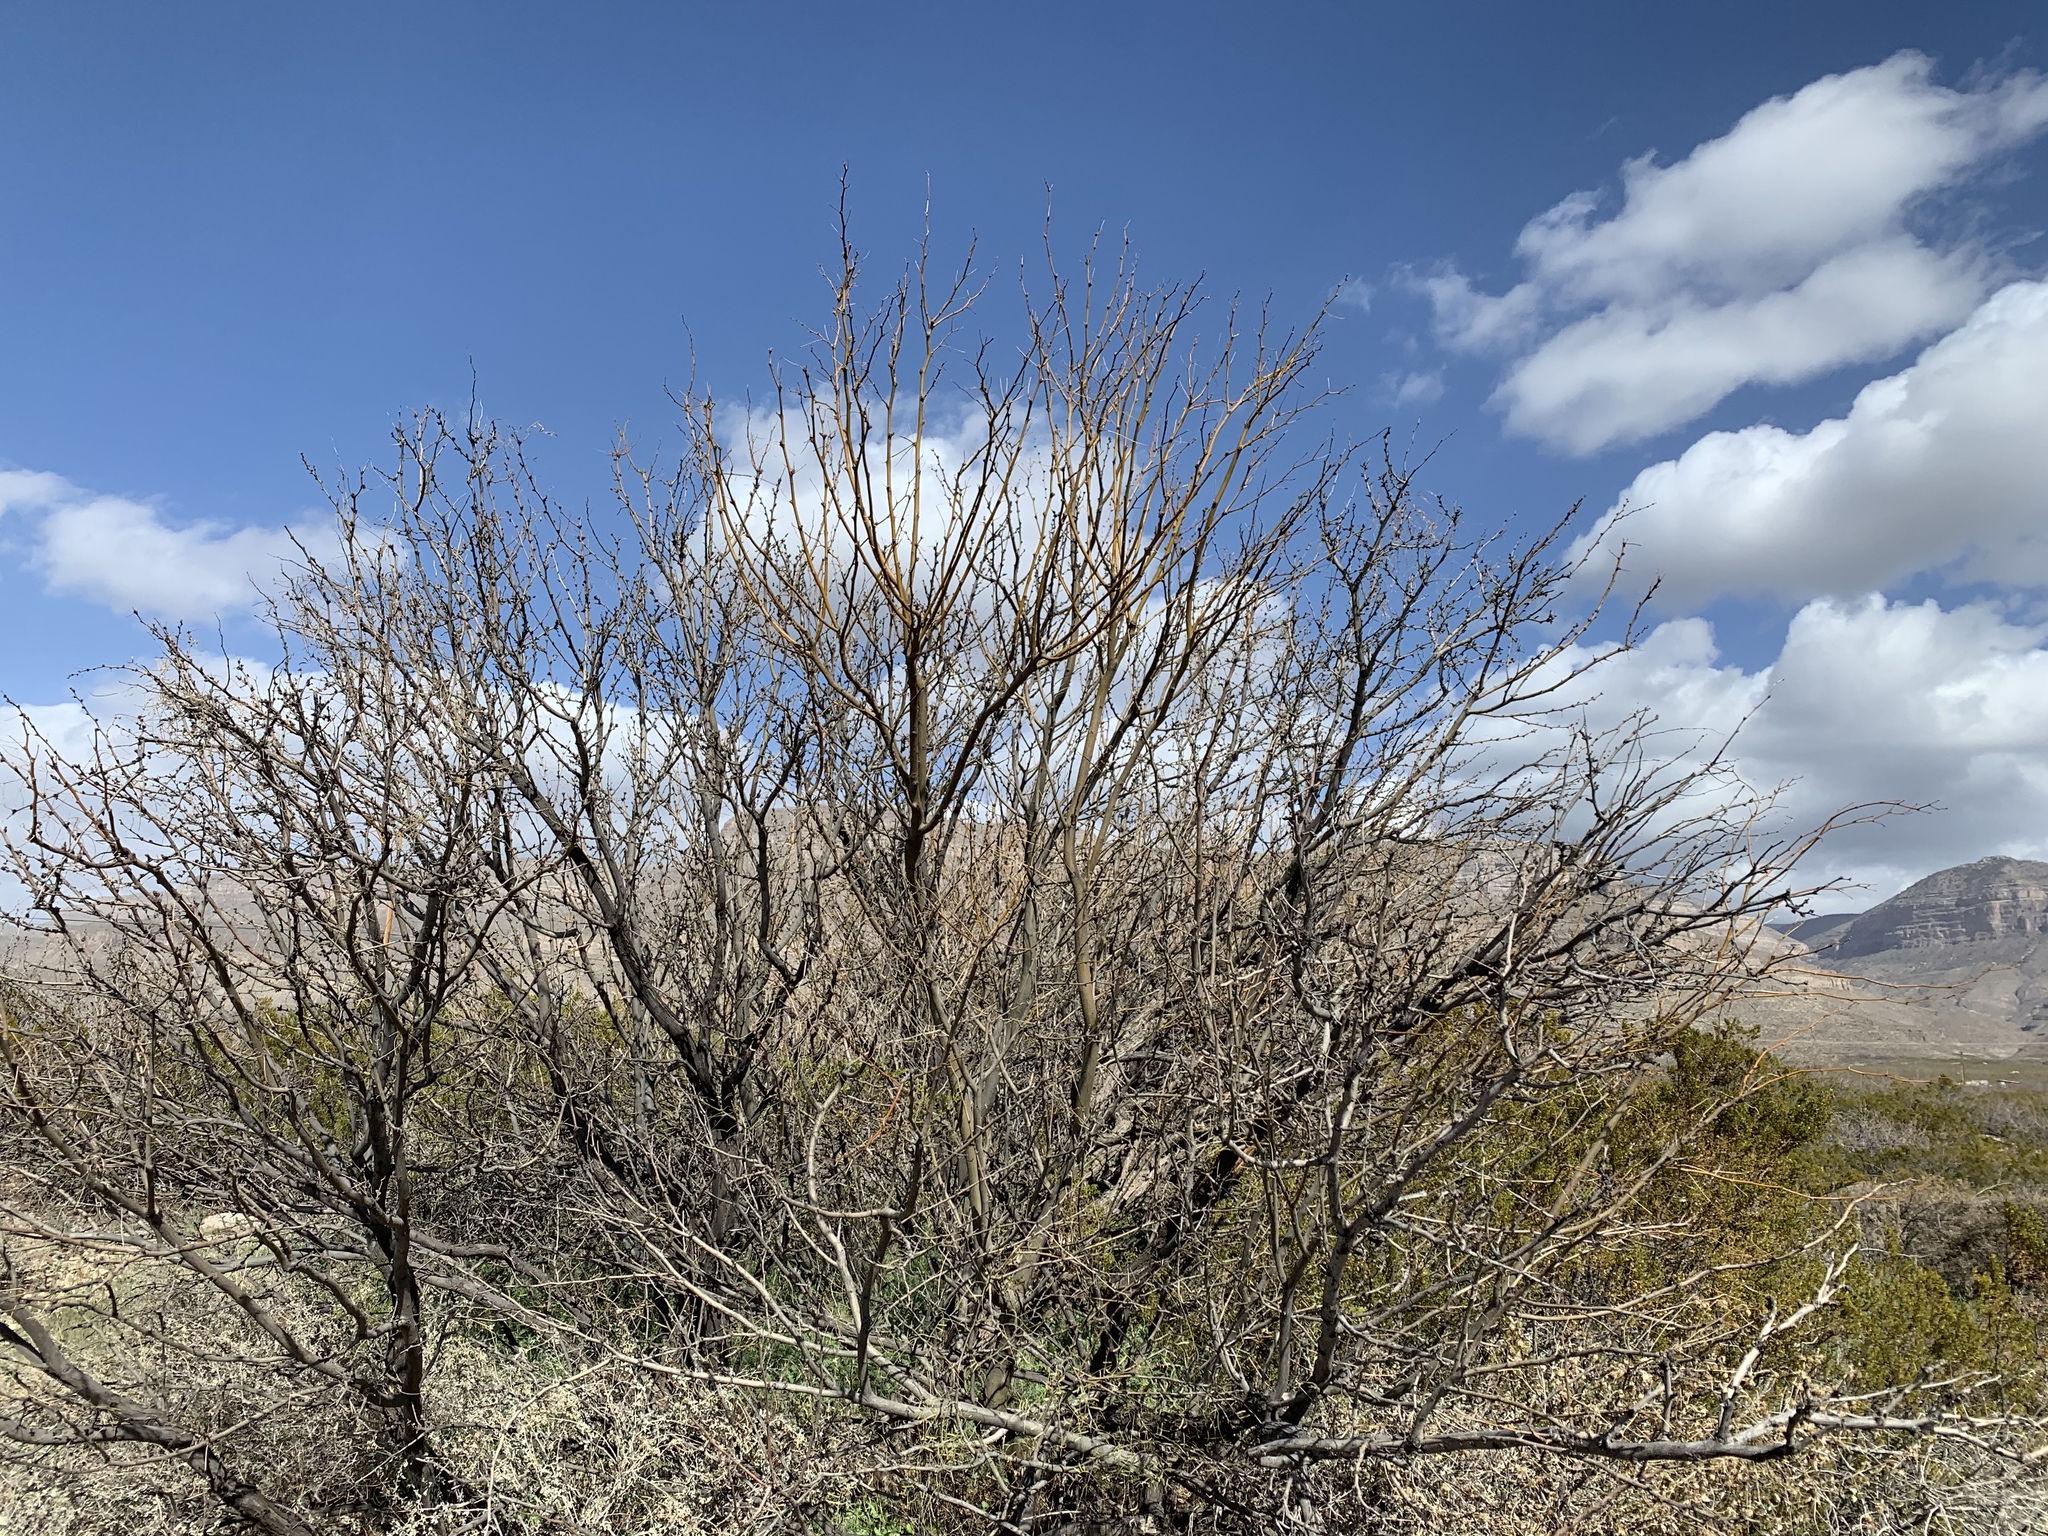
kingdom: Plantae
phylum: Tracheophyta
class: Magnoliopsida
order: Fabales
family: Fabaceae
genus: Prosopis
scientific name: Prosopis glandulosa
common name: Honey mesquite
